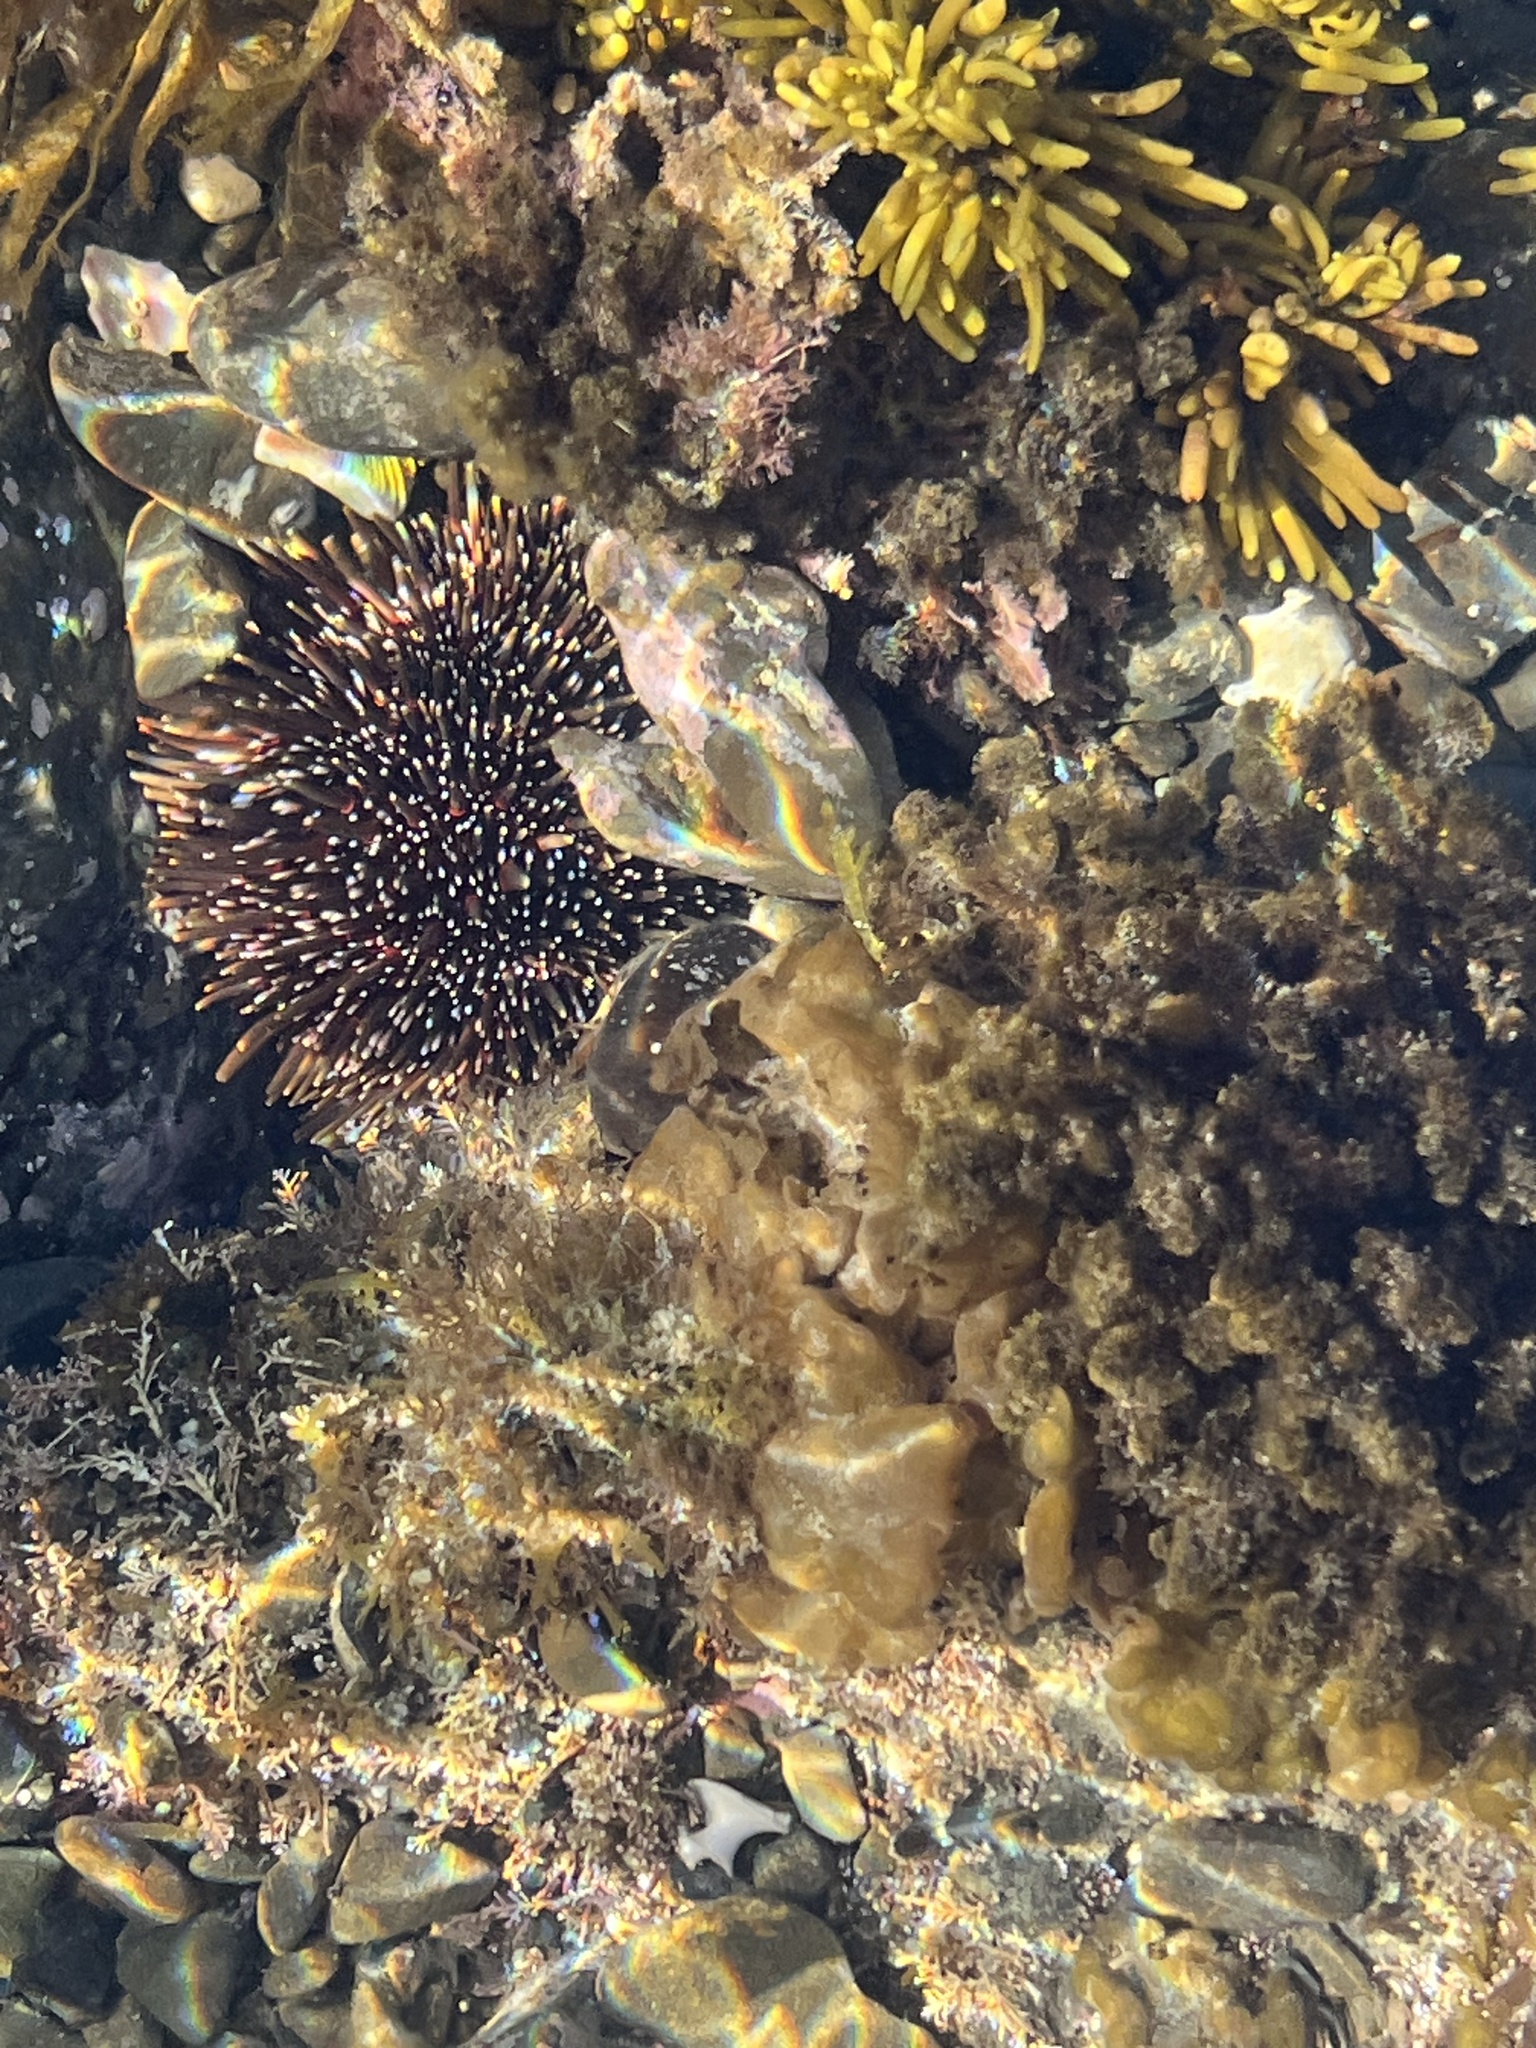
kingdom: Animalia
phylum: Echinodermata
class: Echinoidea
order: Camarodonta
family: Echinometridae
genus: Evechinus
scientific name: Evechinus chloroticus
